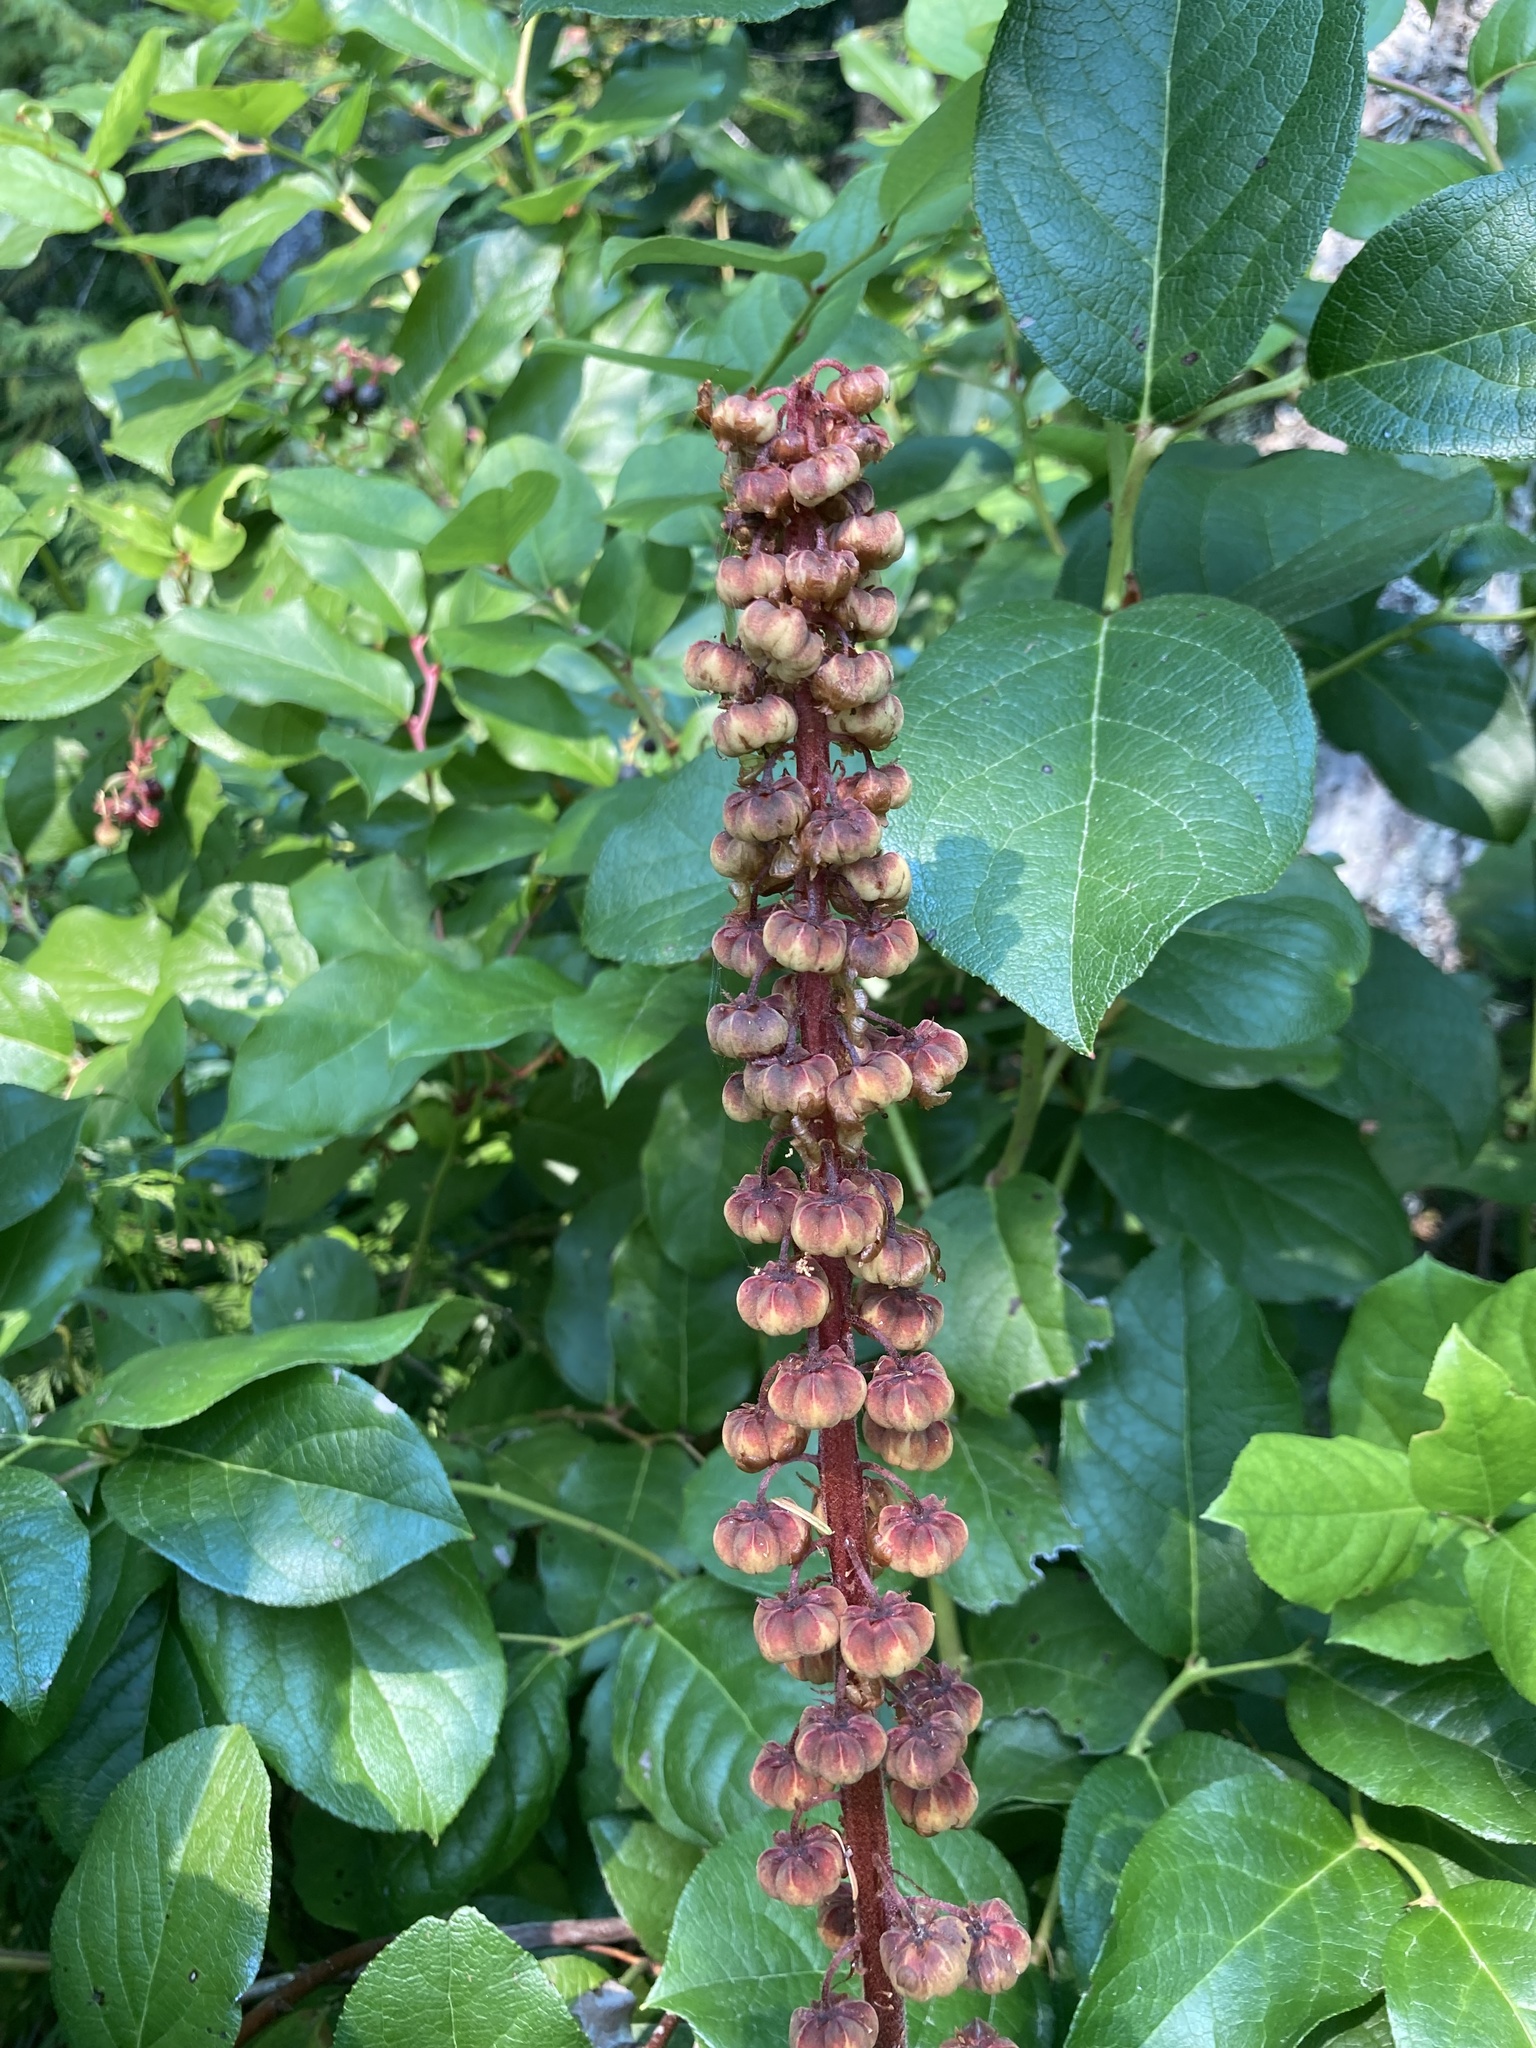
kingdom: Plantae
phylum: Tracheophyta
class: Magnoliopsida
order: Ericales
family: Ericaceae
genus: Pterospora
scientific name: Pterospora andromedea
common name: Giant bird's-nest
